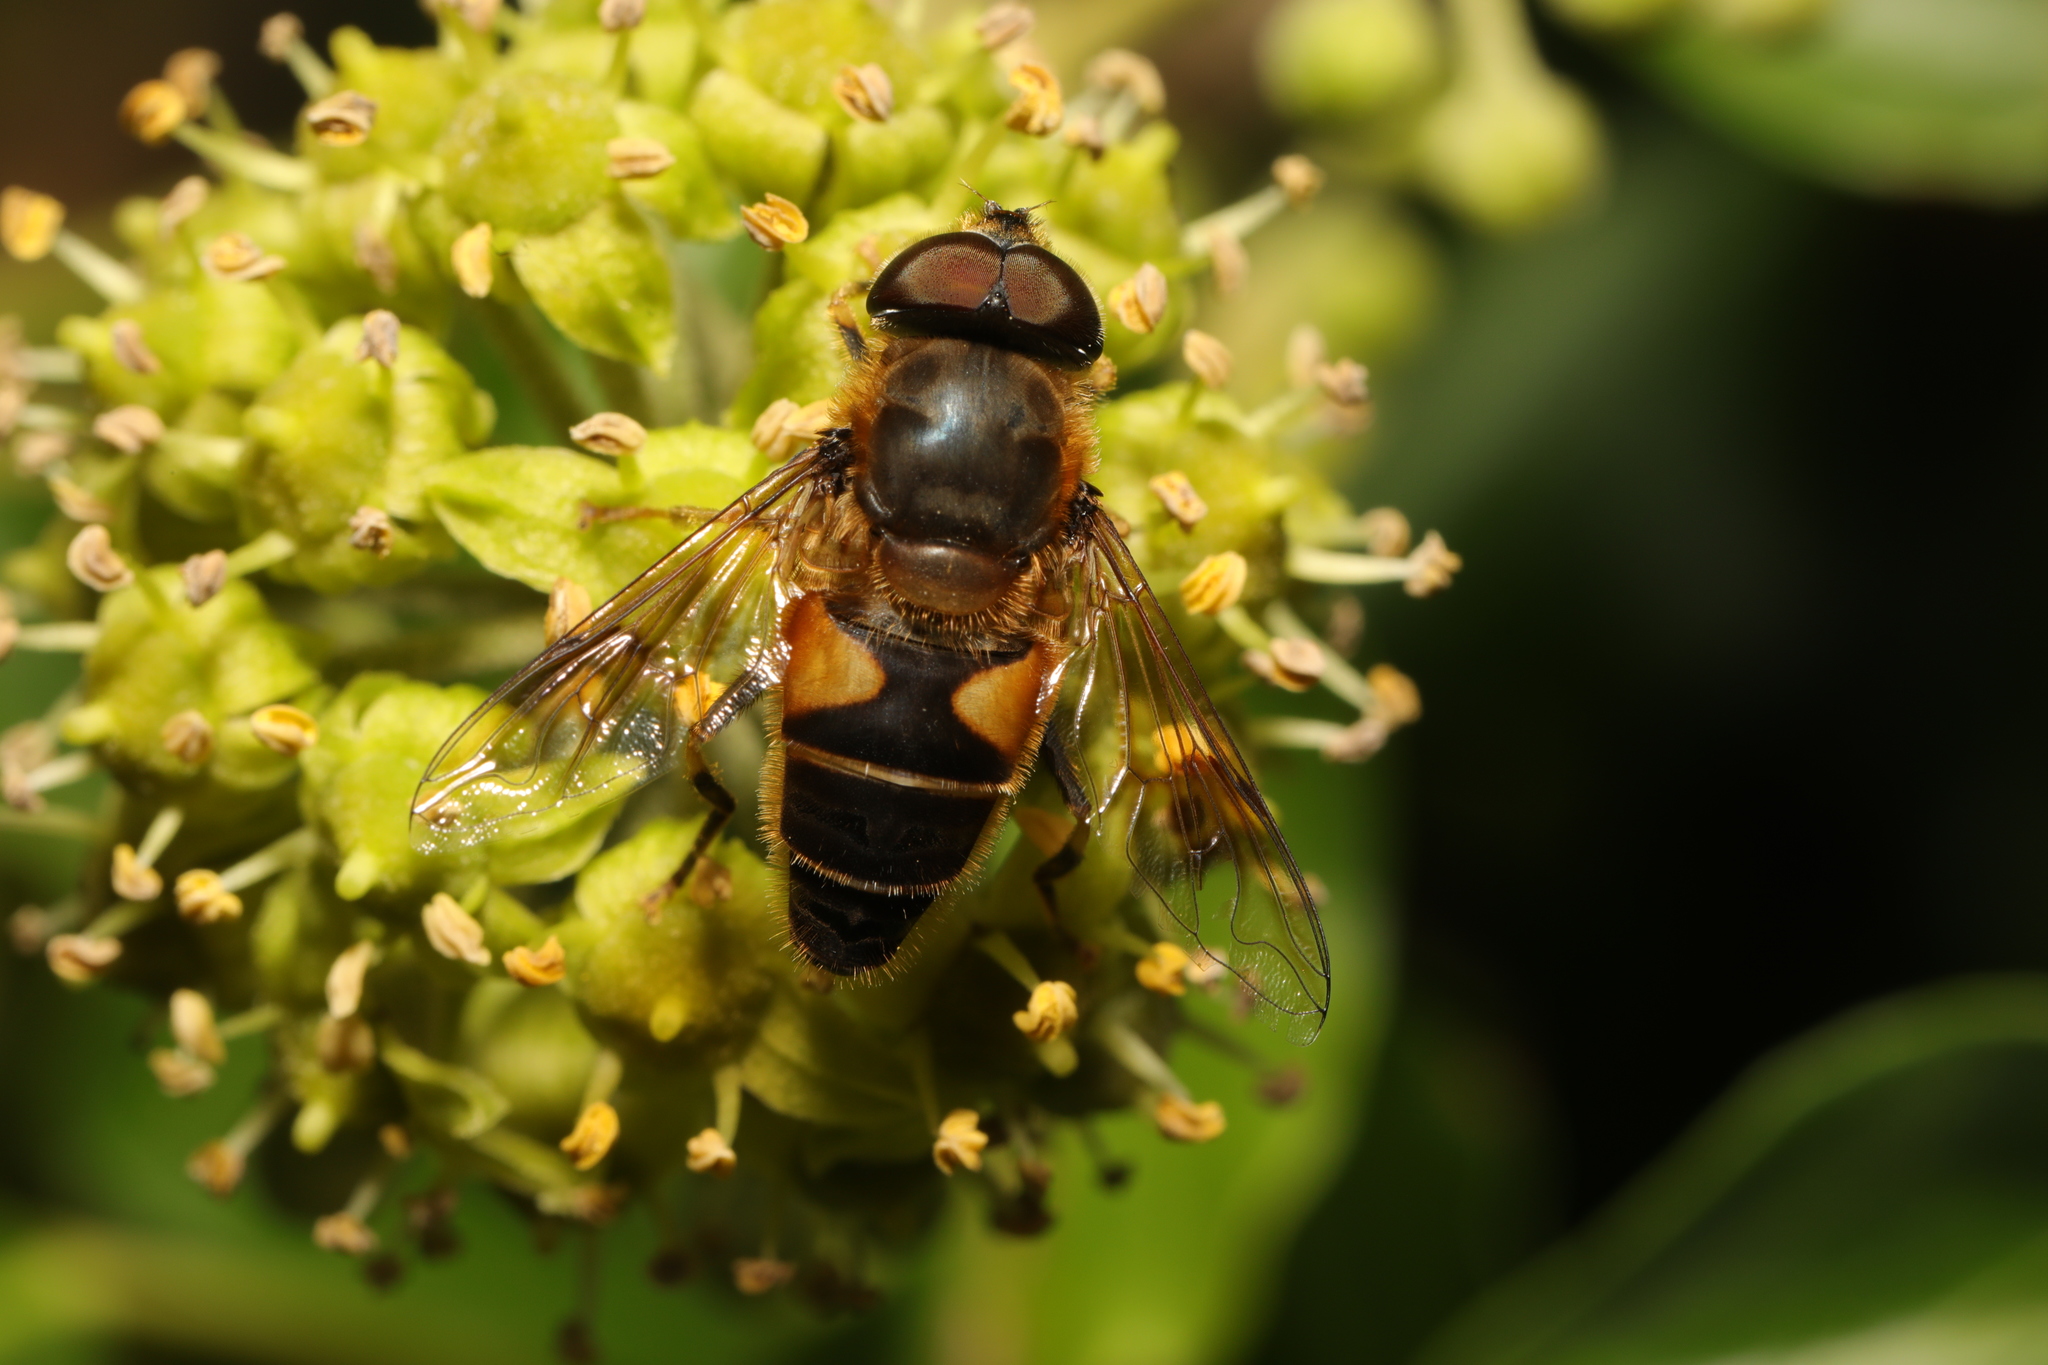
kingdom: Animalia
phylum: Arthropoda
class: Insecta
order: Diptera
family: Syrphidae
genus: Eristalis
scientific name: Eristalis pertinax
